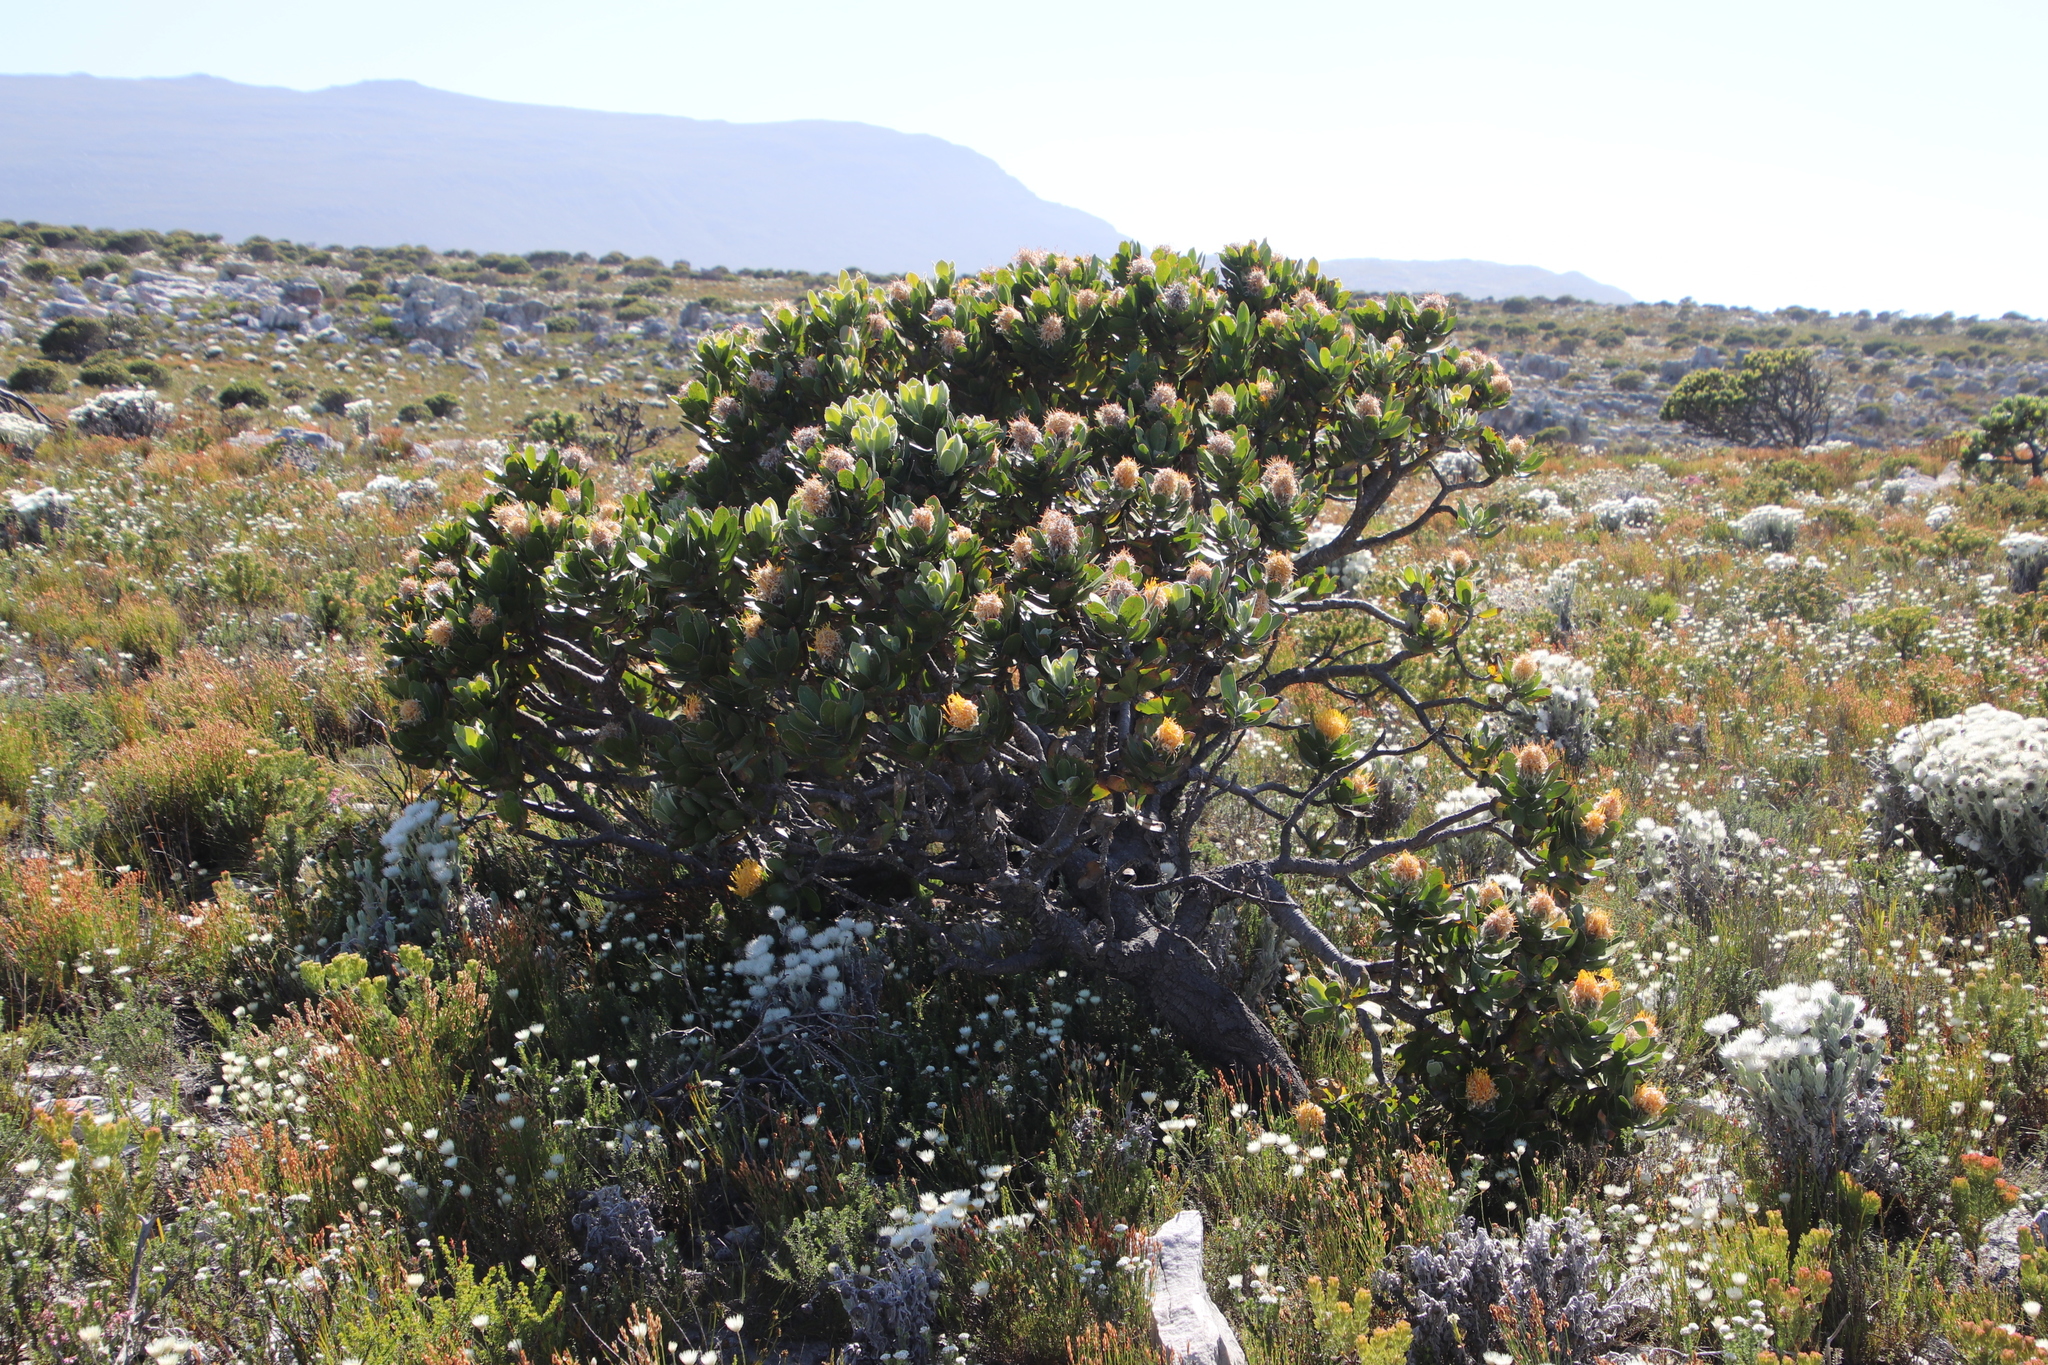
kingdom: Plantae
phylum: Tracheophyta
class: Magnoliopsida
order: Proteales
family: Proteaceae
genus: Leucospermum
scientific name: Leucospermum conocarpodendron
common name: Tree pincushion
